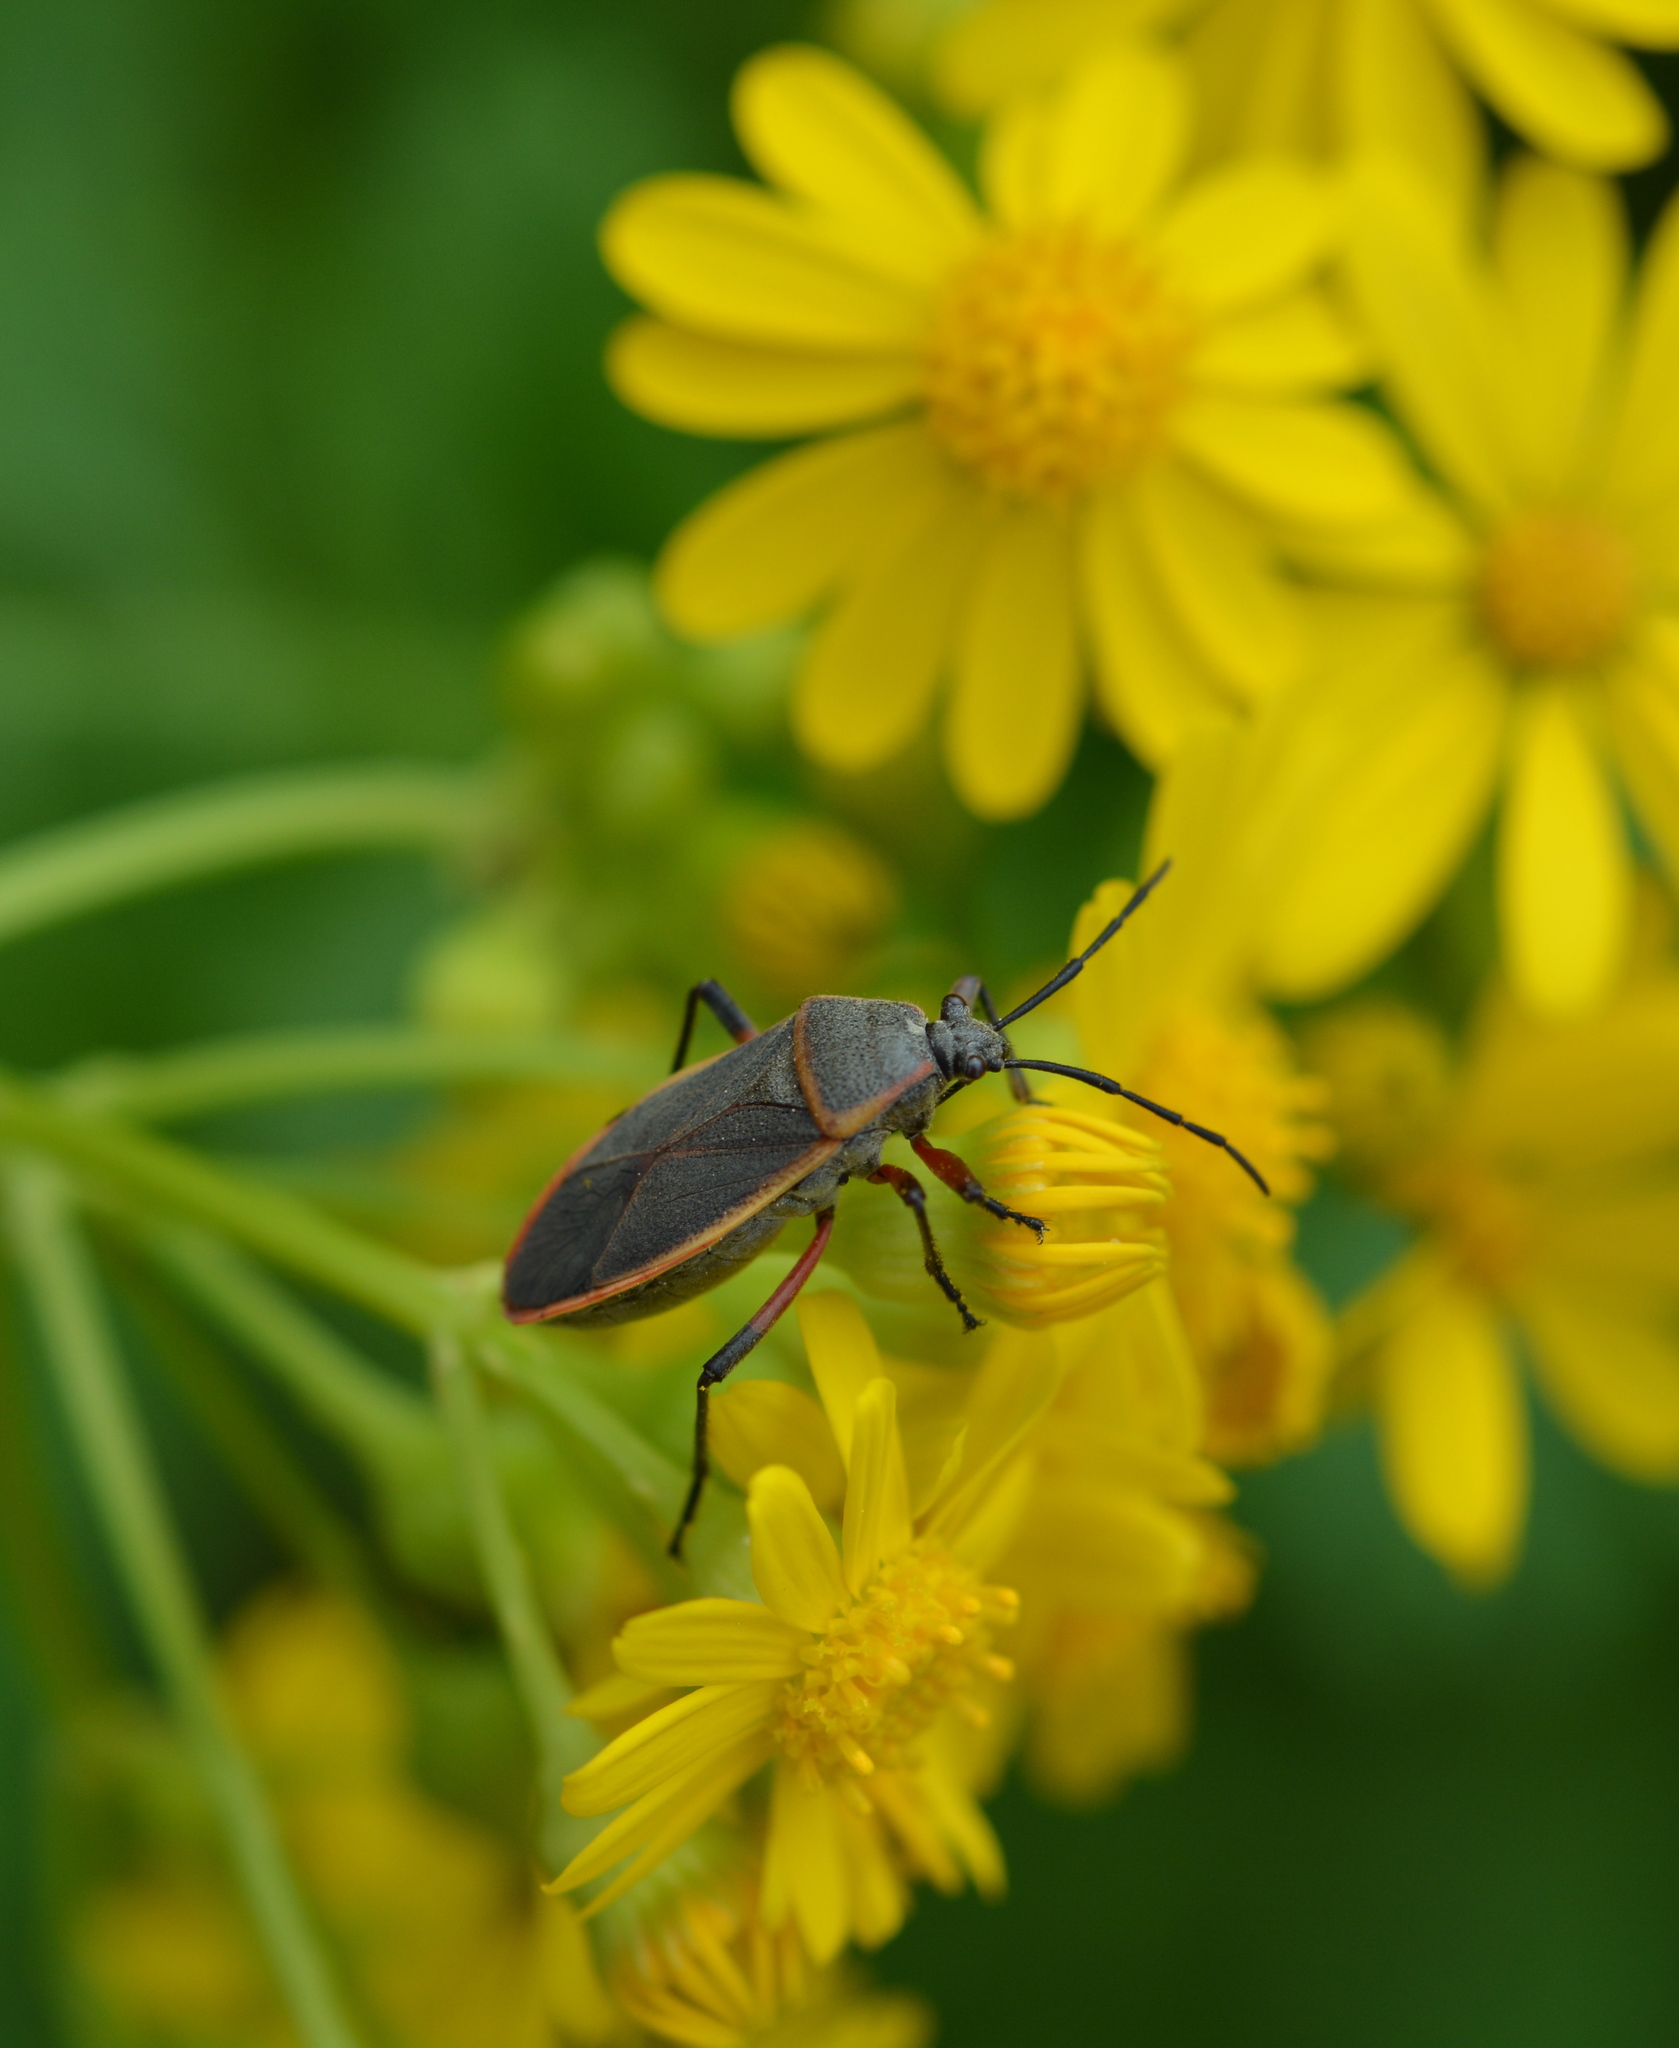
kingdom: Animalia
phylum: Arthropoda
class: Insecta
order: Hemiptera
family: Largidae
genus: Largus
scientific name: Largus succinctus
